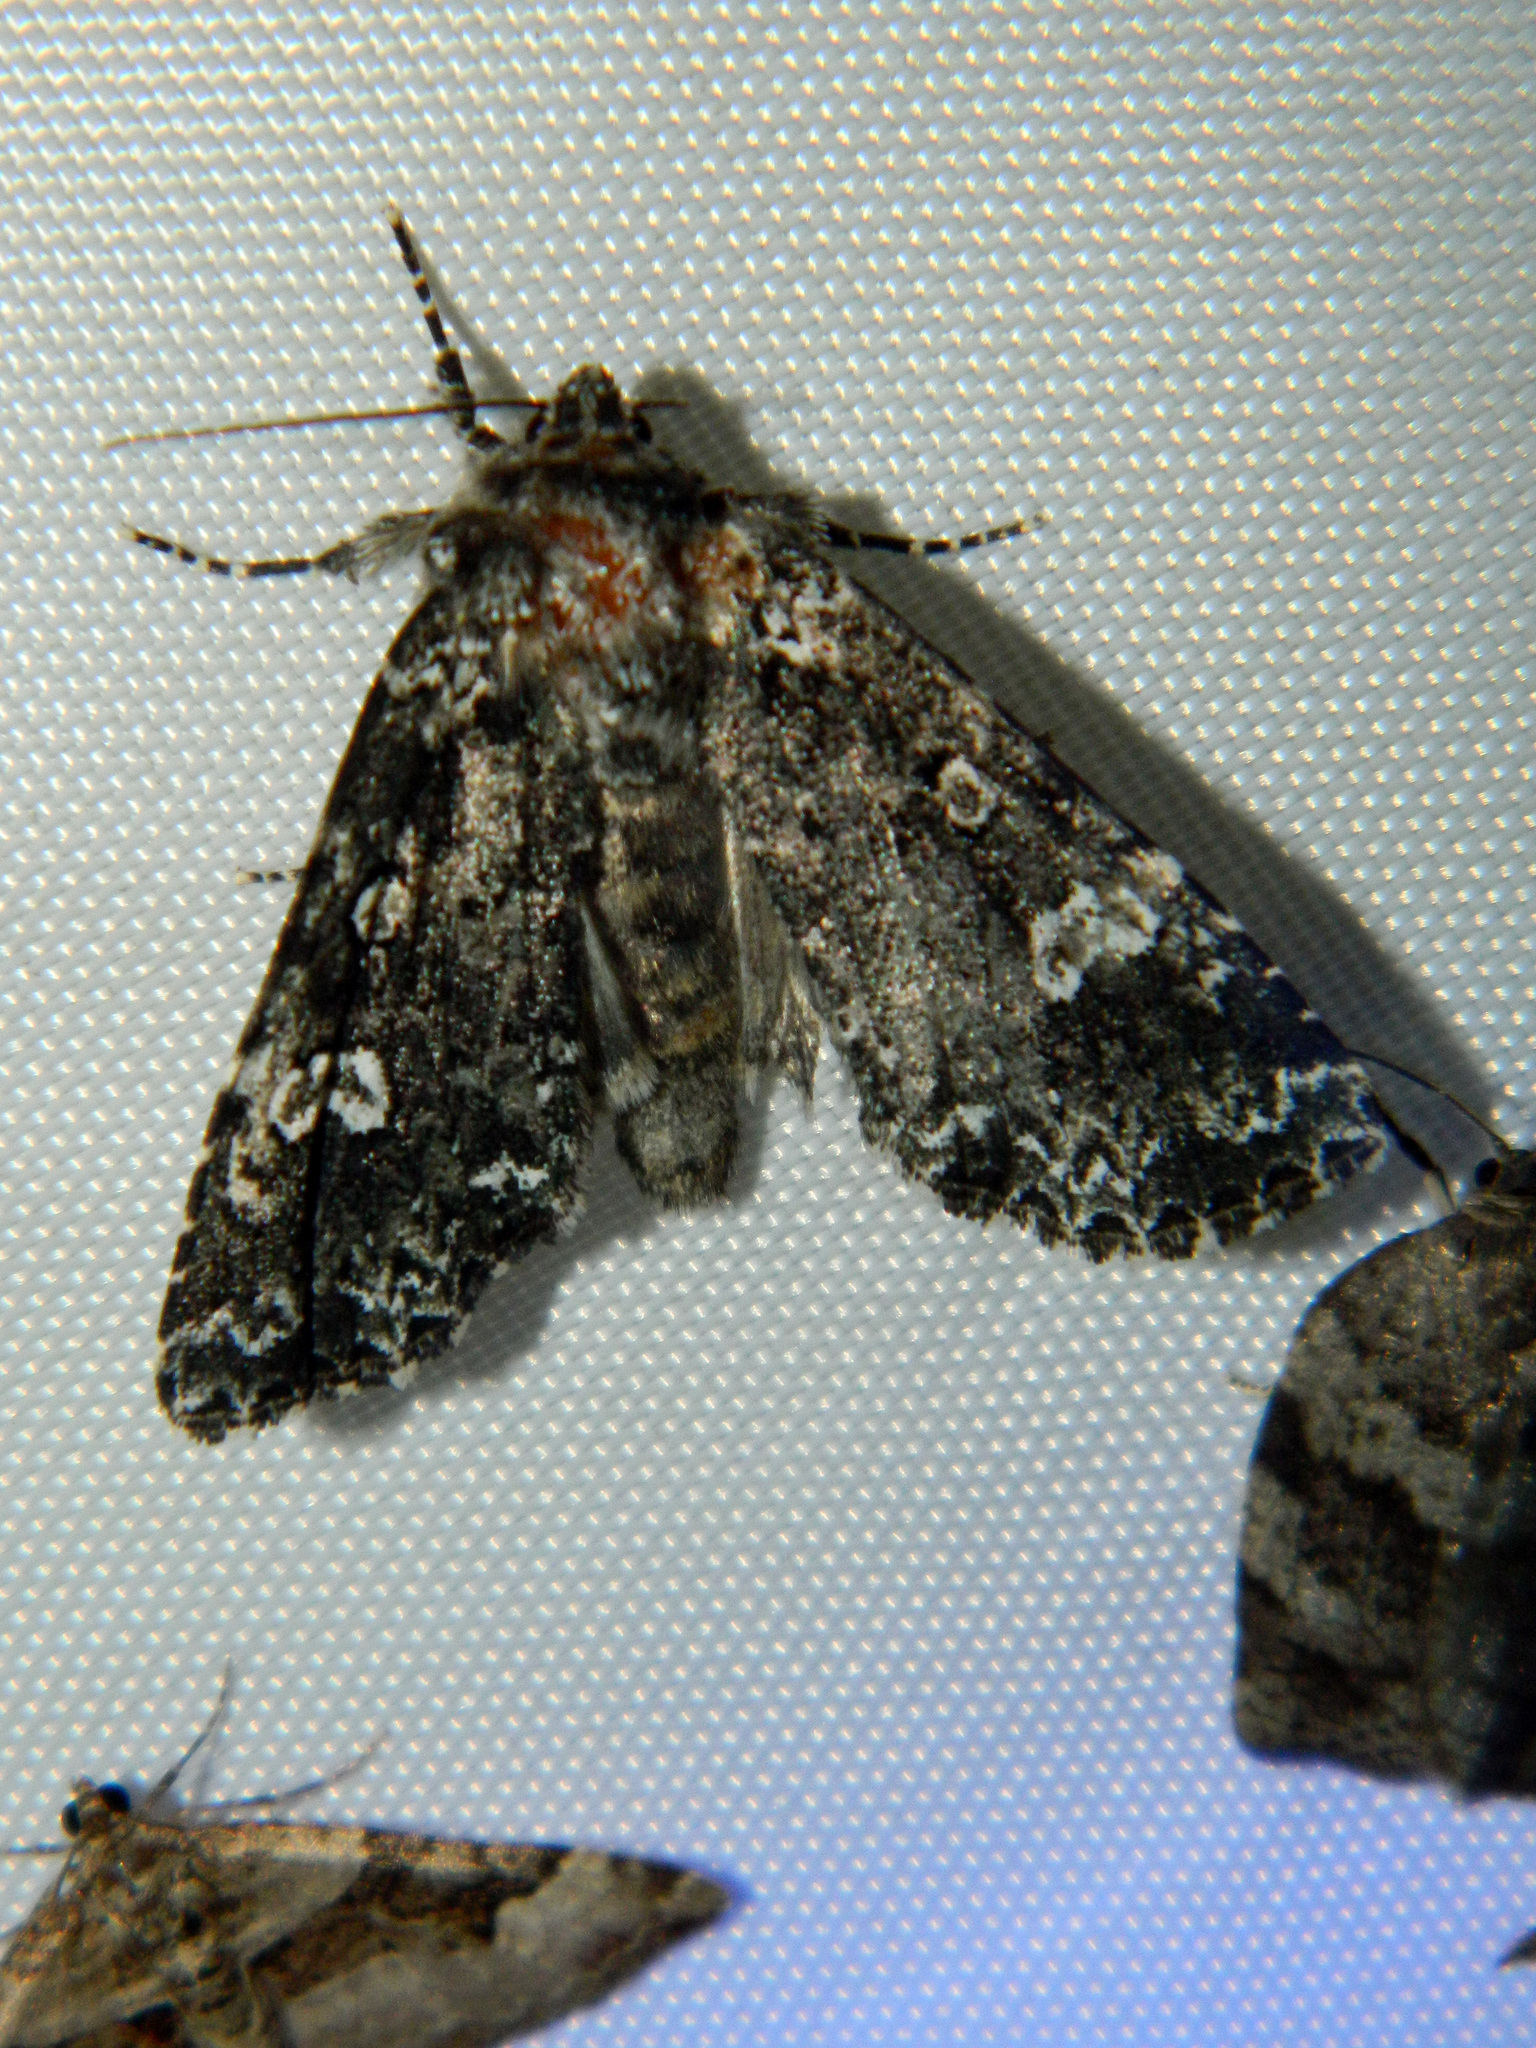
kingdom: Animalia
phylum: Arthropoda
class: Insecta
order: Lepidoptera
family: Noctuidae
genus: Melanchra
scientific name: Melanchra adjuncta
